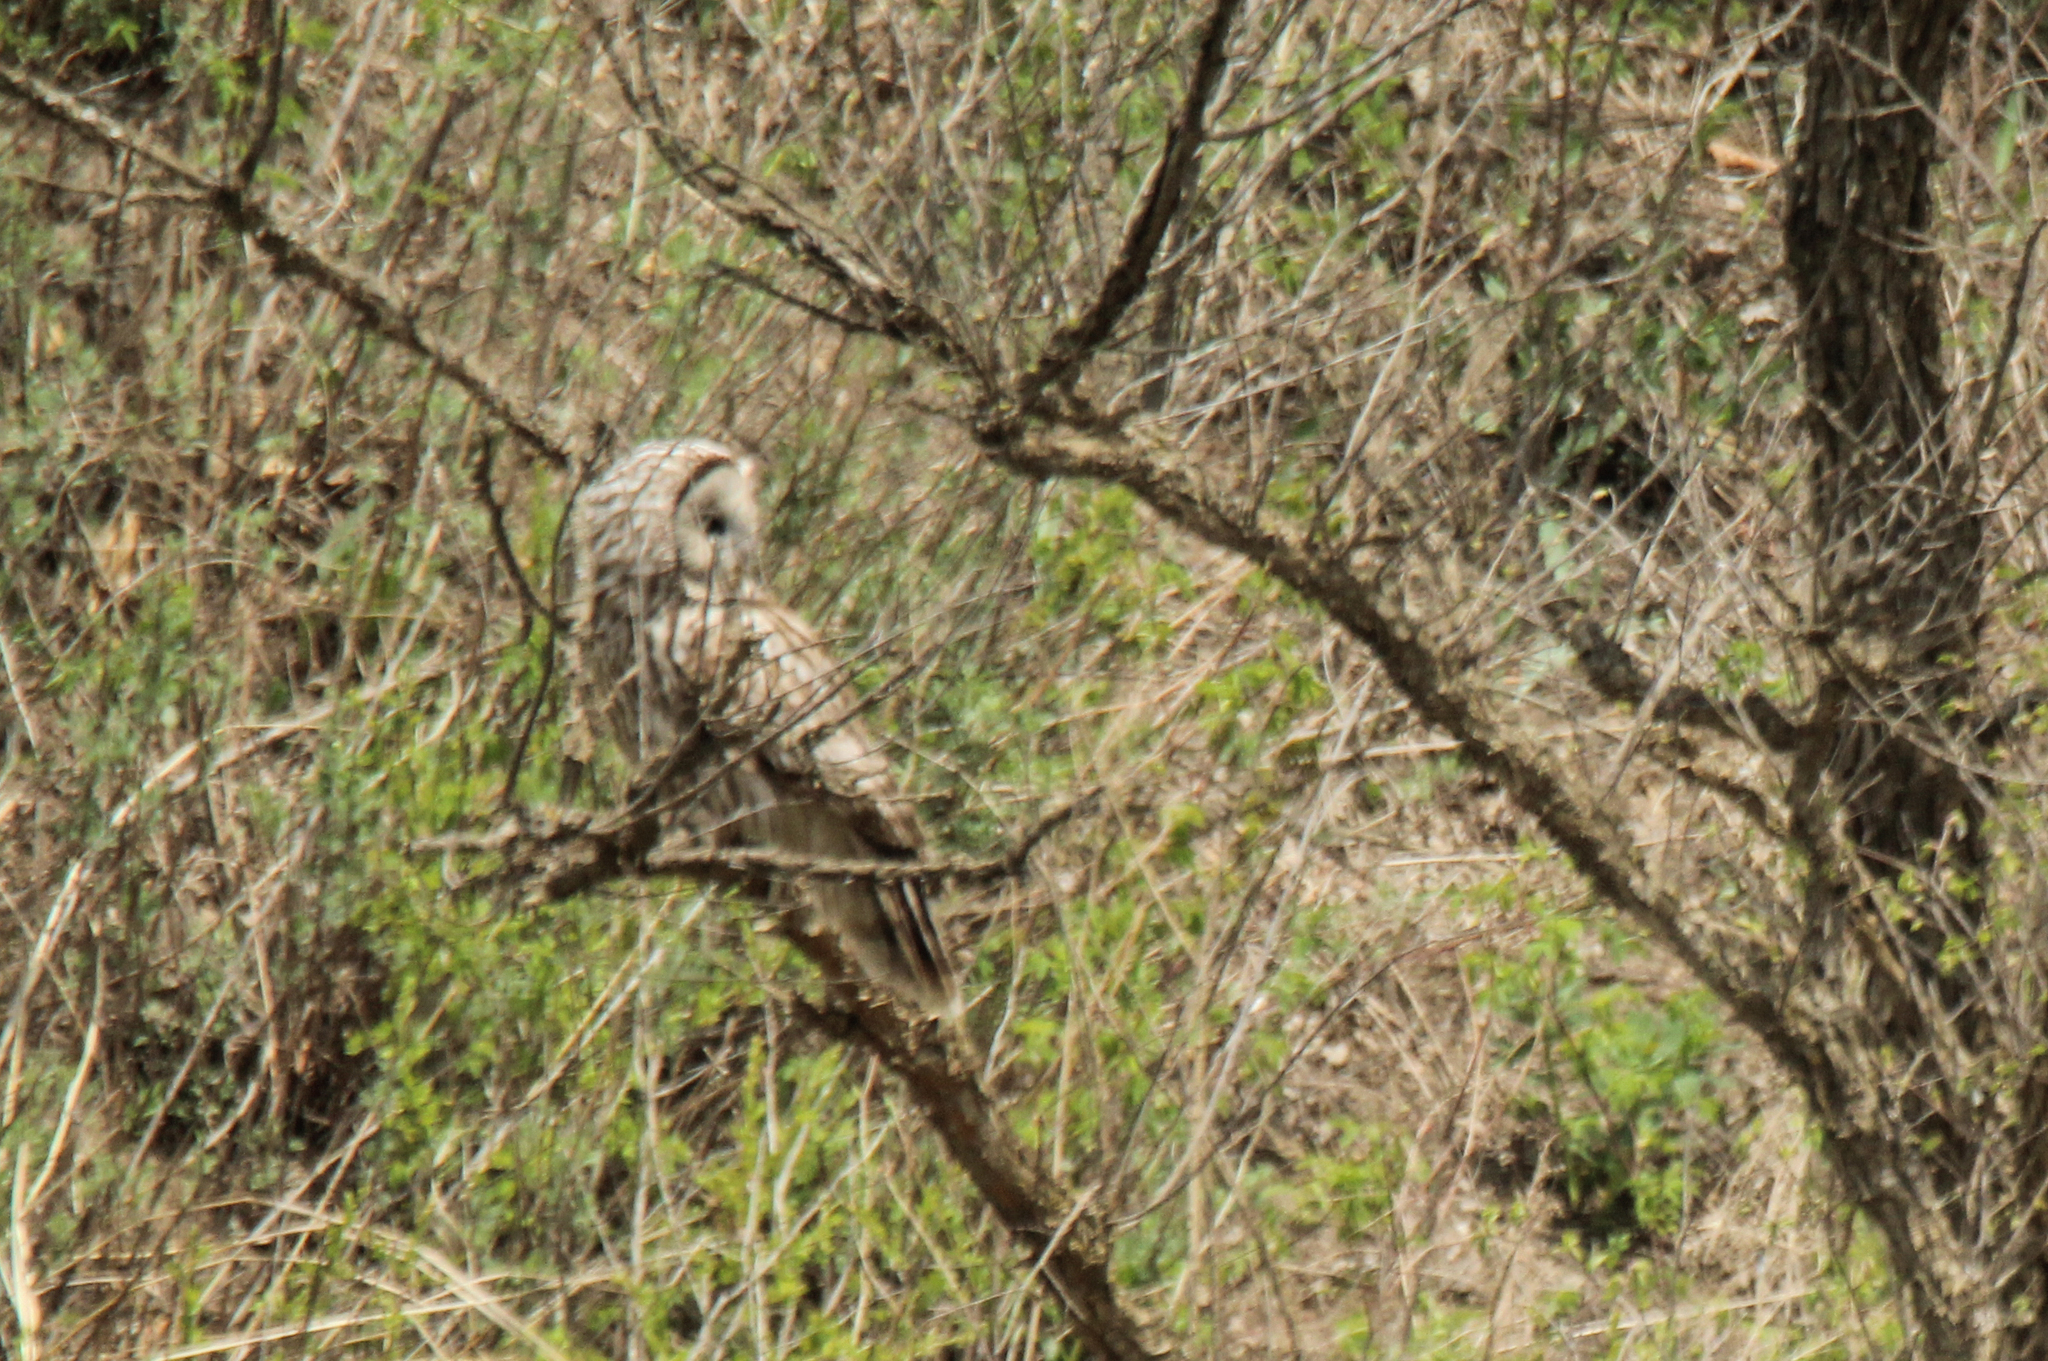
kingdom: Animalia
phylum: Chordata
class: Aves
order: Strigiformes
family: Strigidae
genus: Strix
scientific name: Strix uralensis
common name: Ural owl
